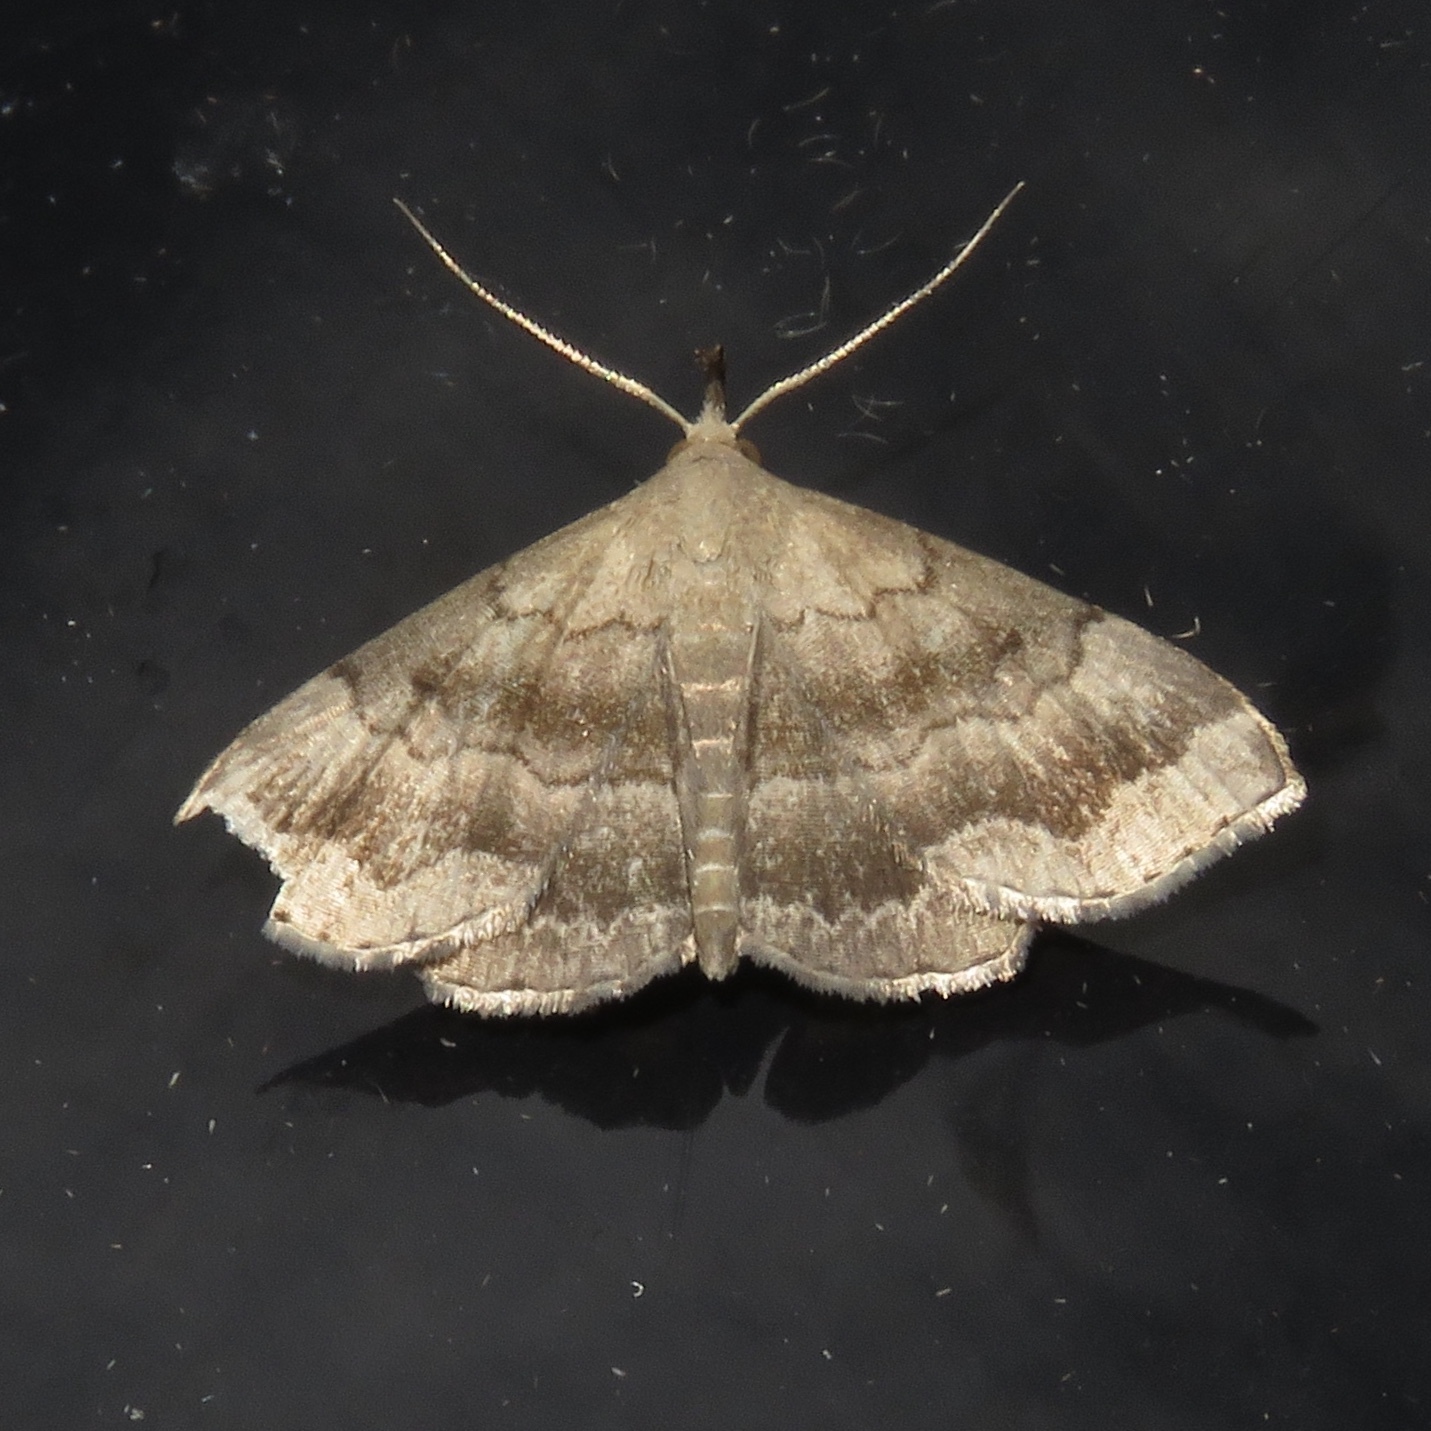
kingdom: Animalia
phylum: Arthropoda
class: Insecta
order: Lepidoptera
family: Erebidae
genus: Phalaenostola
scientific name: Phalaenostola larentioides
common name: Black-banded owlet
